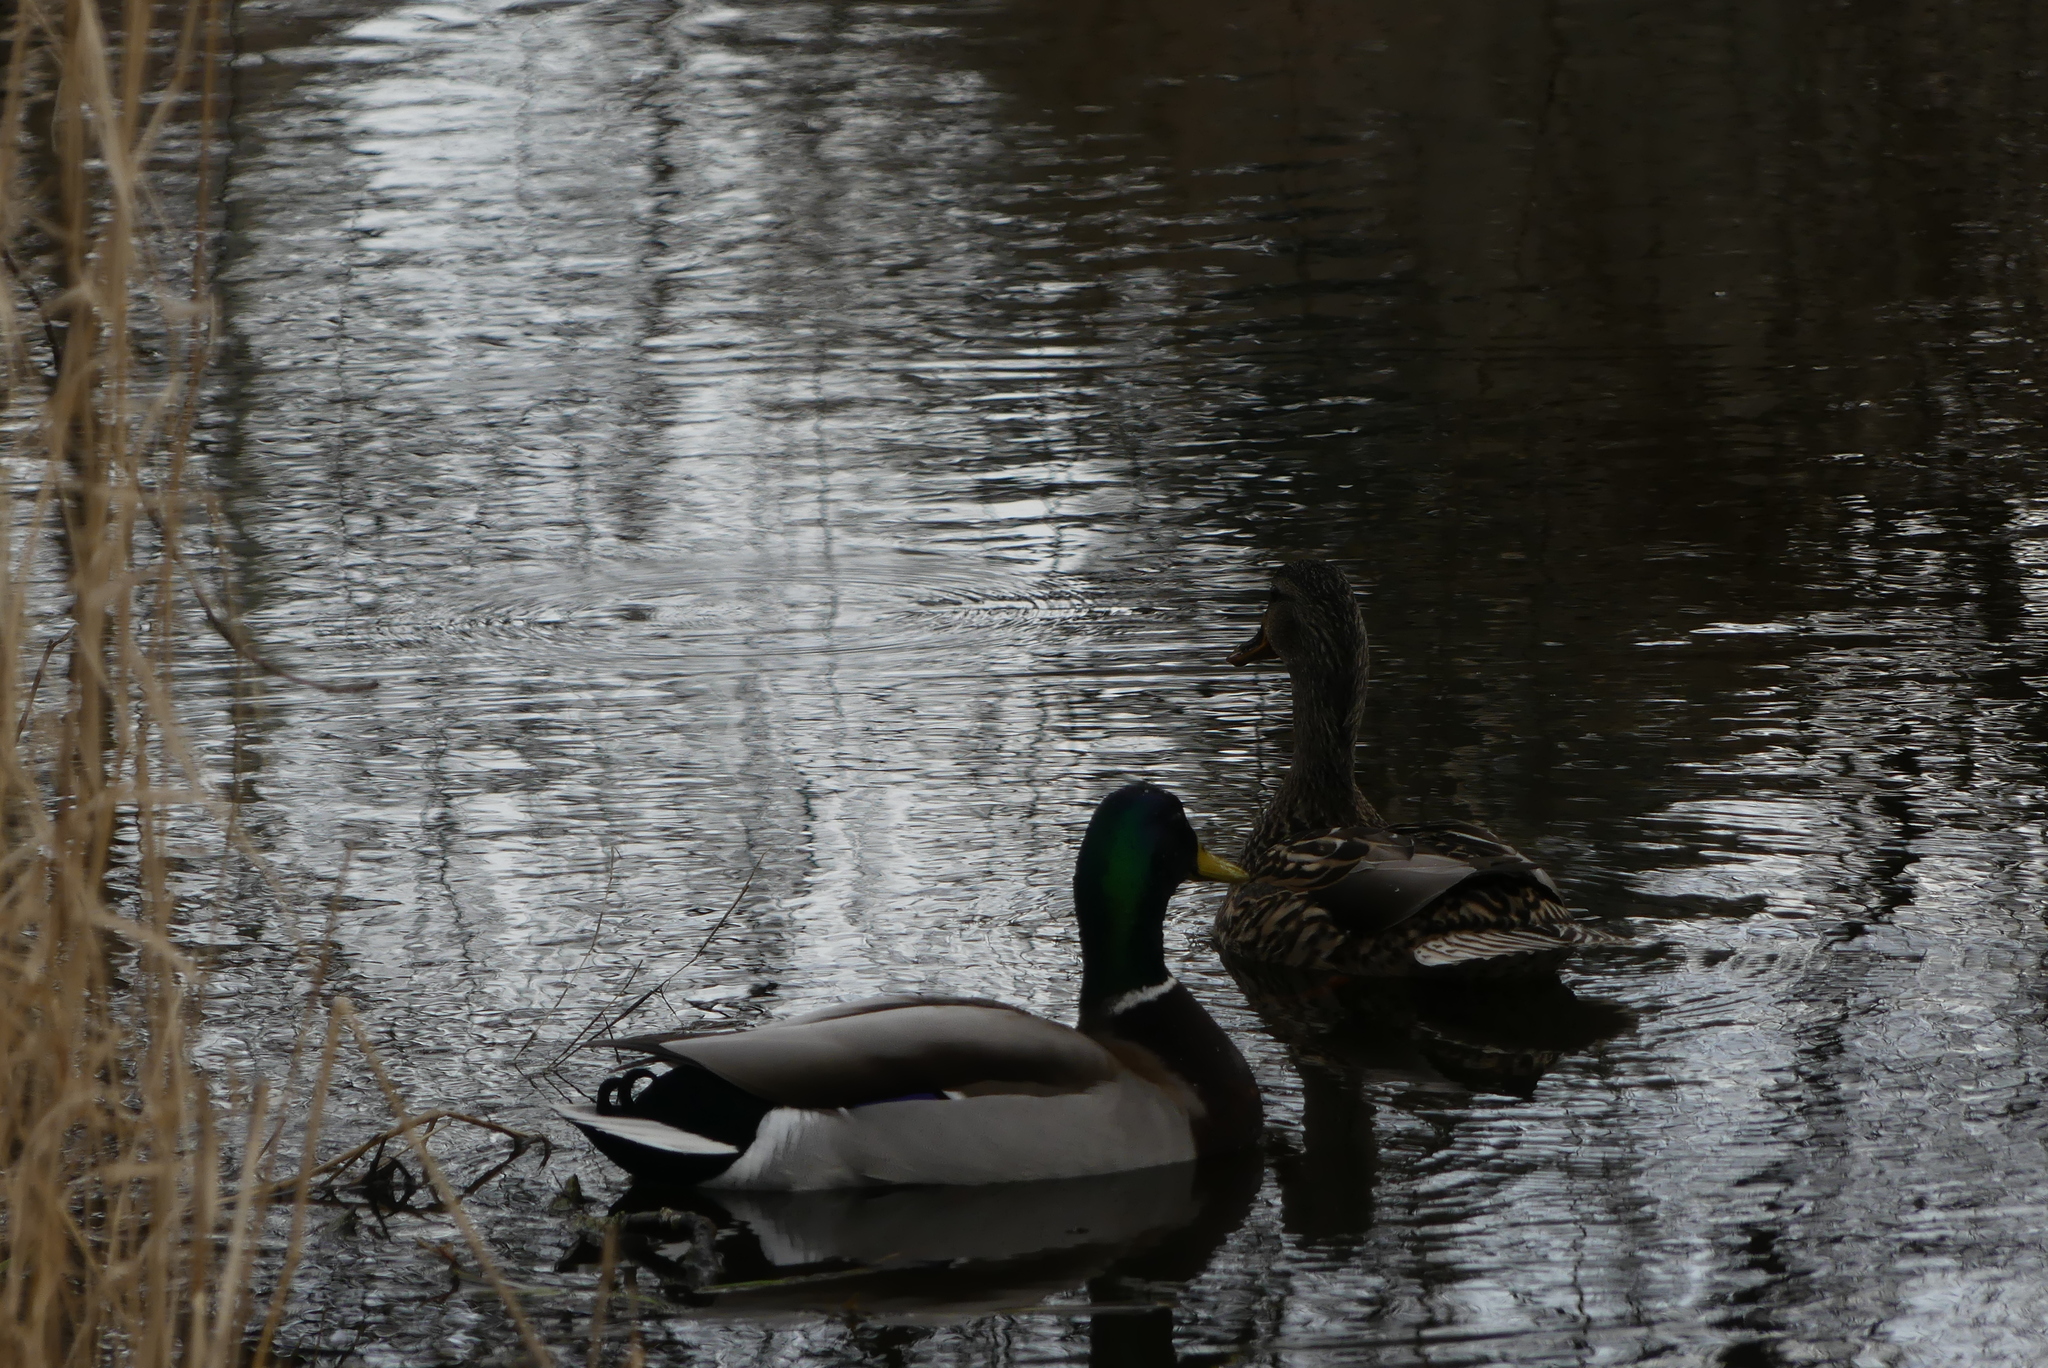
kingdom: Animalia
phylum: Chordata
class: Aves
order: Anseriformes
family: Anatidae
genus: Anas
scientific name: Anas platyrhynchos
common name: Mallard
